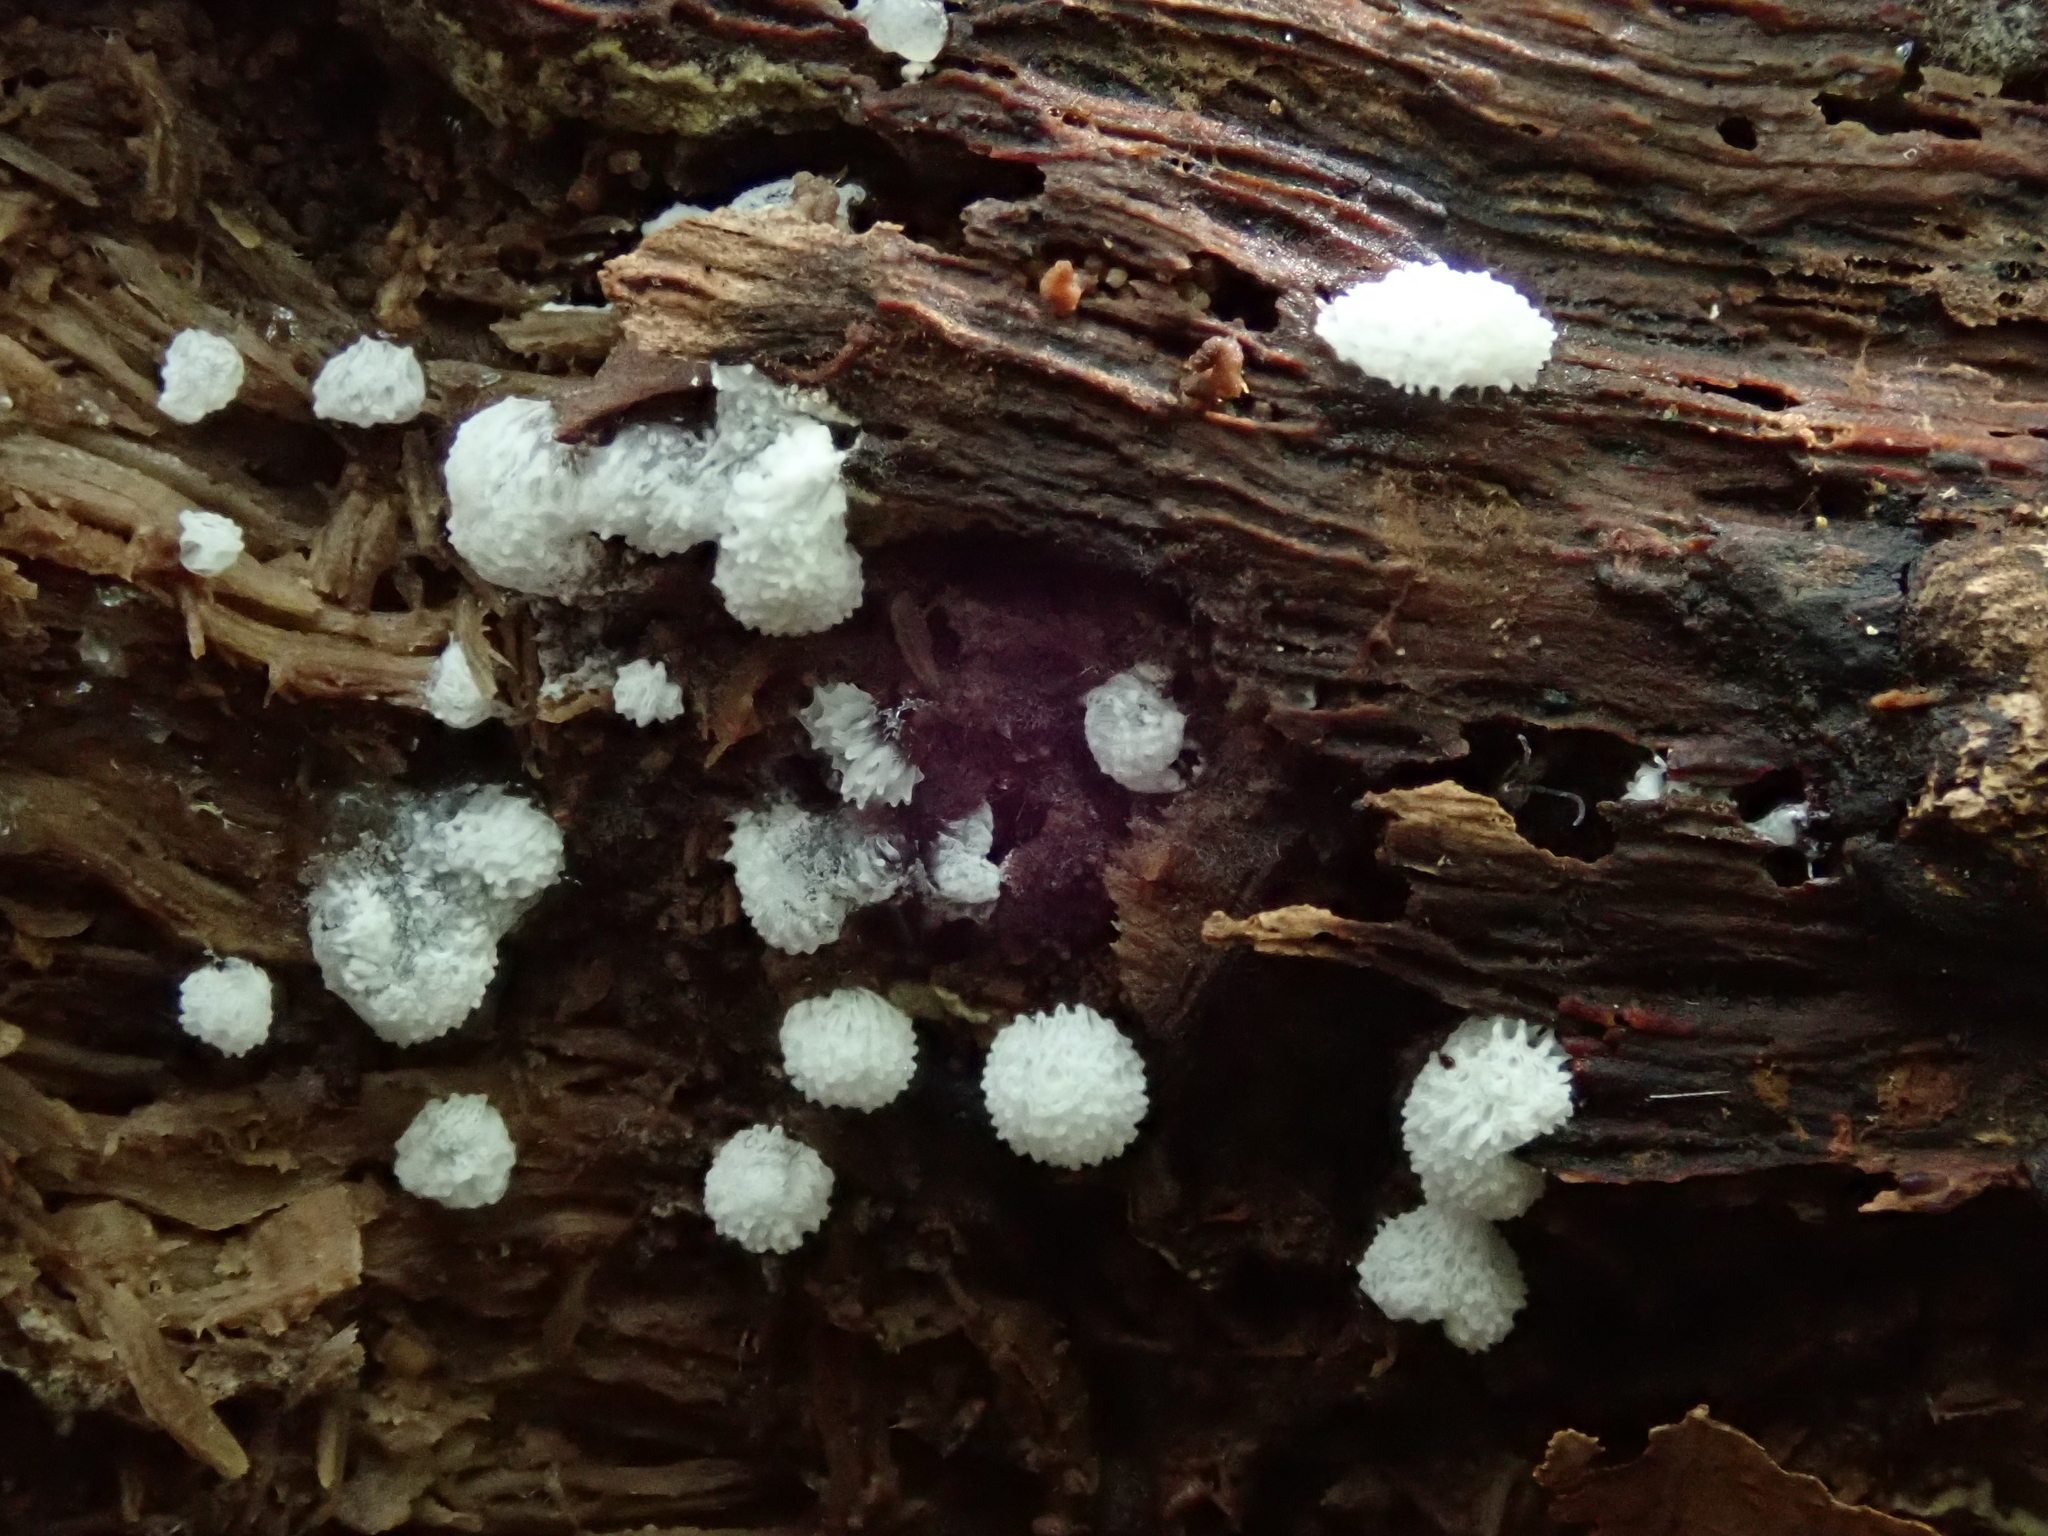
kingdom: Protozoa
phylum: Mycetozoa
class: Protosteliomycetes
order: Ceratiomyxales
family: Ceratiomyxaceae
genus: Ceratiomyxa
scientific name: Ceratiomyxa fruticulosa
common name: Honeycomb coral slime mold
